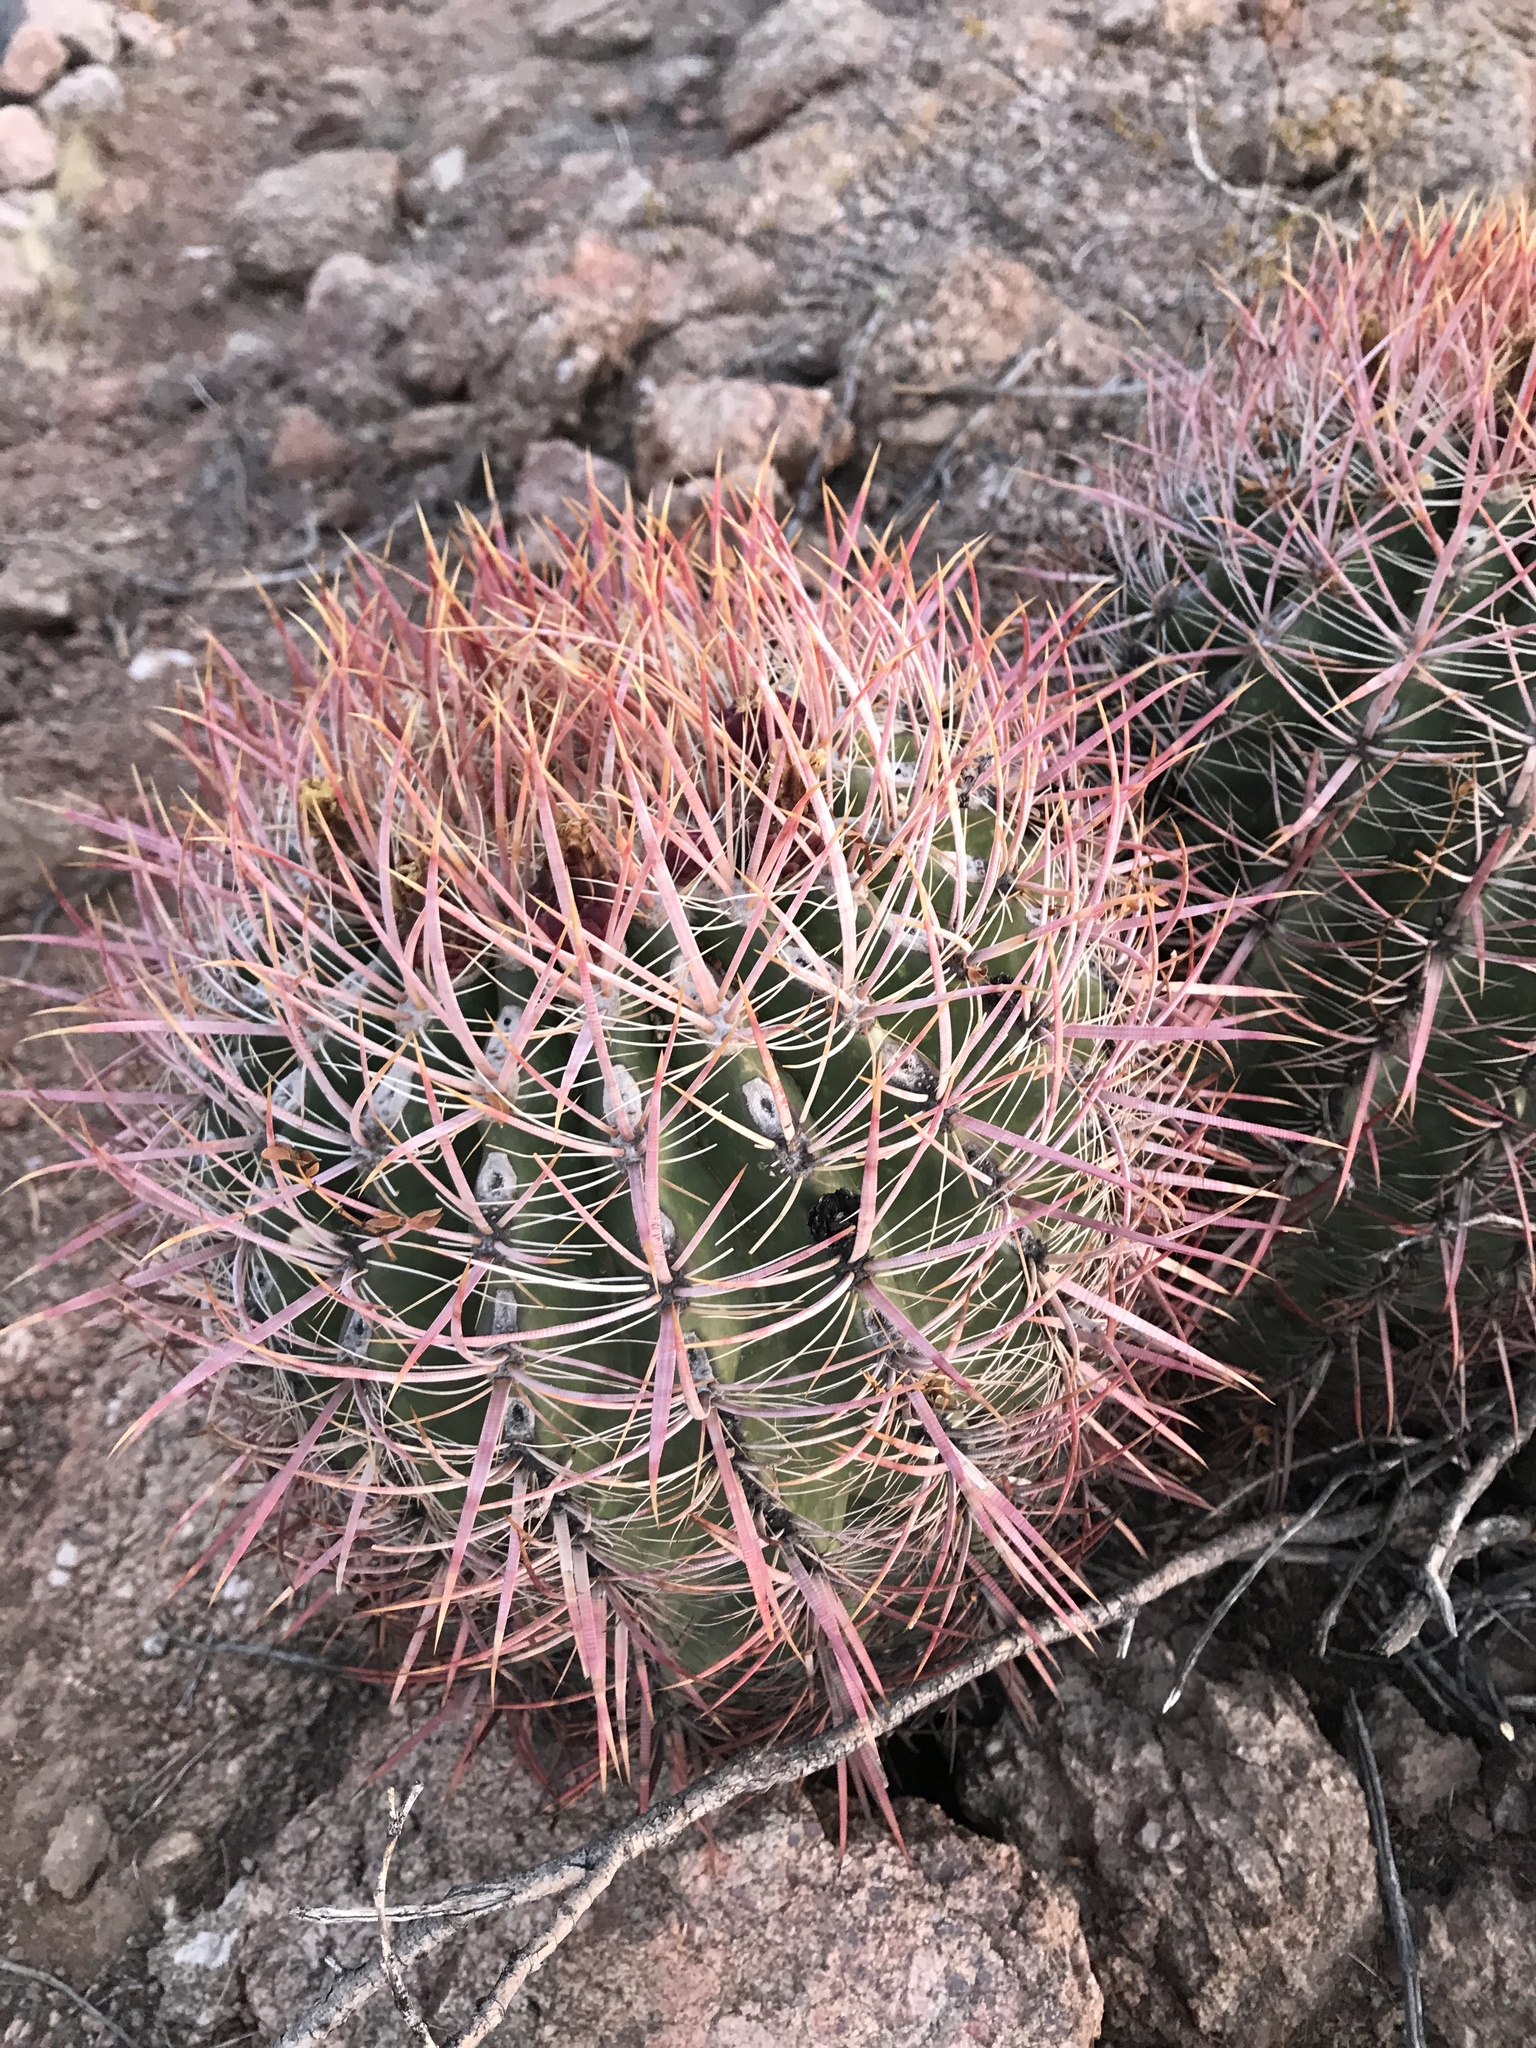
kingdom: Plantae
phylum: Tracheophyta
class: Magnoliopsida
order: Caryophyllales
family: Cactaceae
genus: Ferocactus
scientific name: Ferocactus cylindraceus
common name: California barrel cactus
